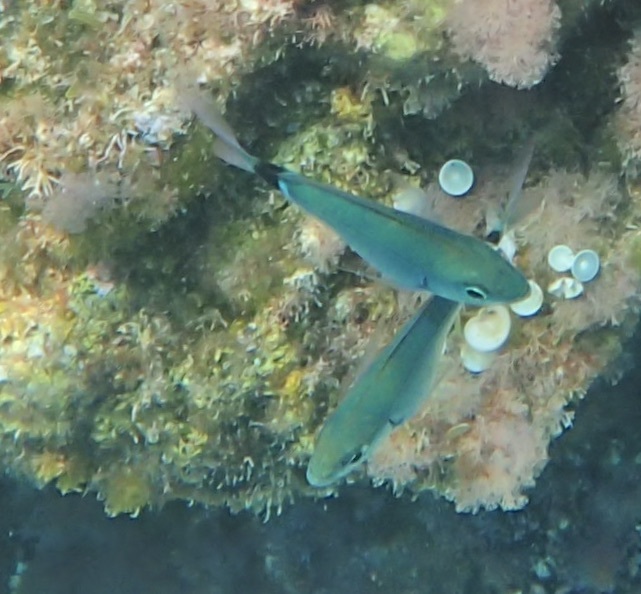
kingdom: Animalia
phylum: Chordata
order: Perciformes
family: Sparidae
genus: Oblada
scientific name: Oblada melanura
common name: Saddled seabream
